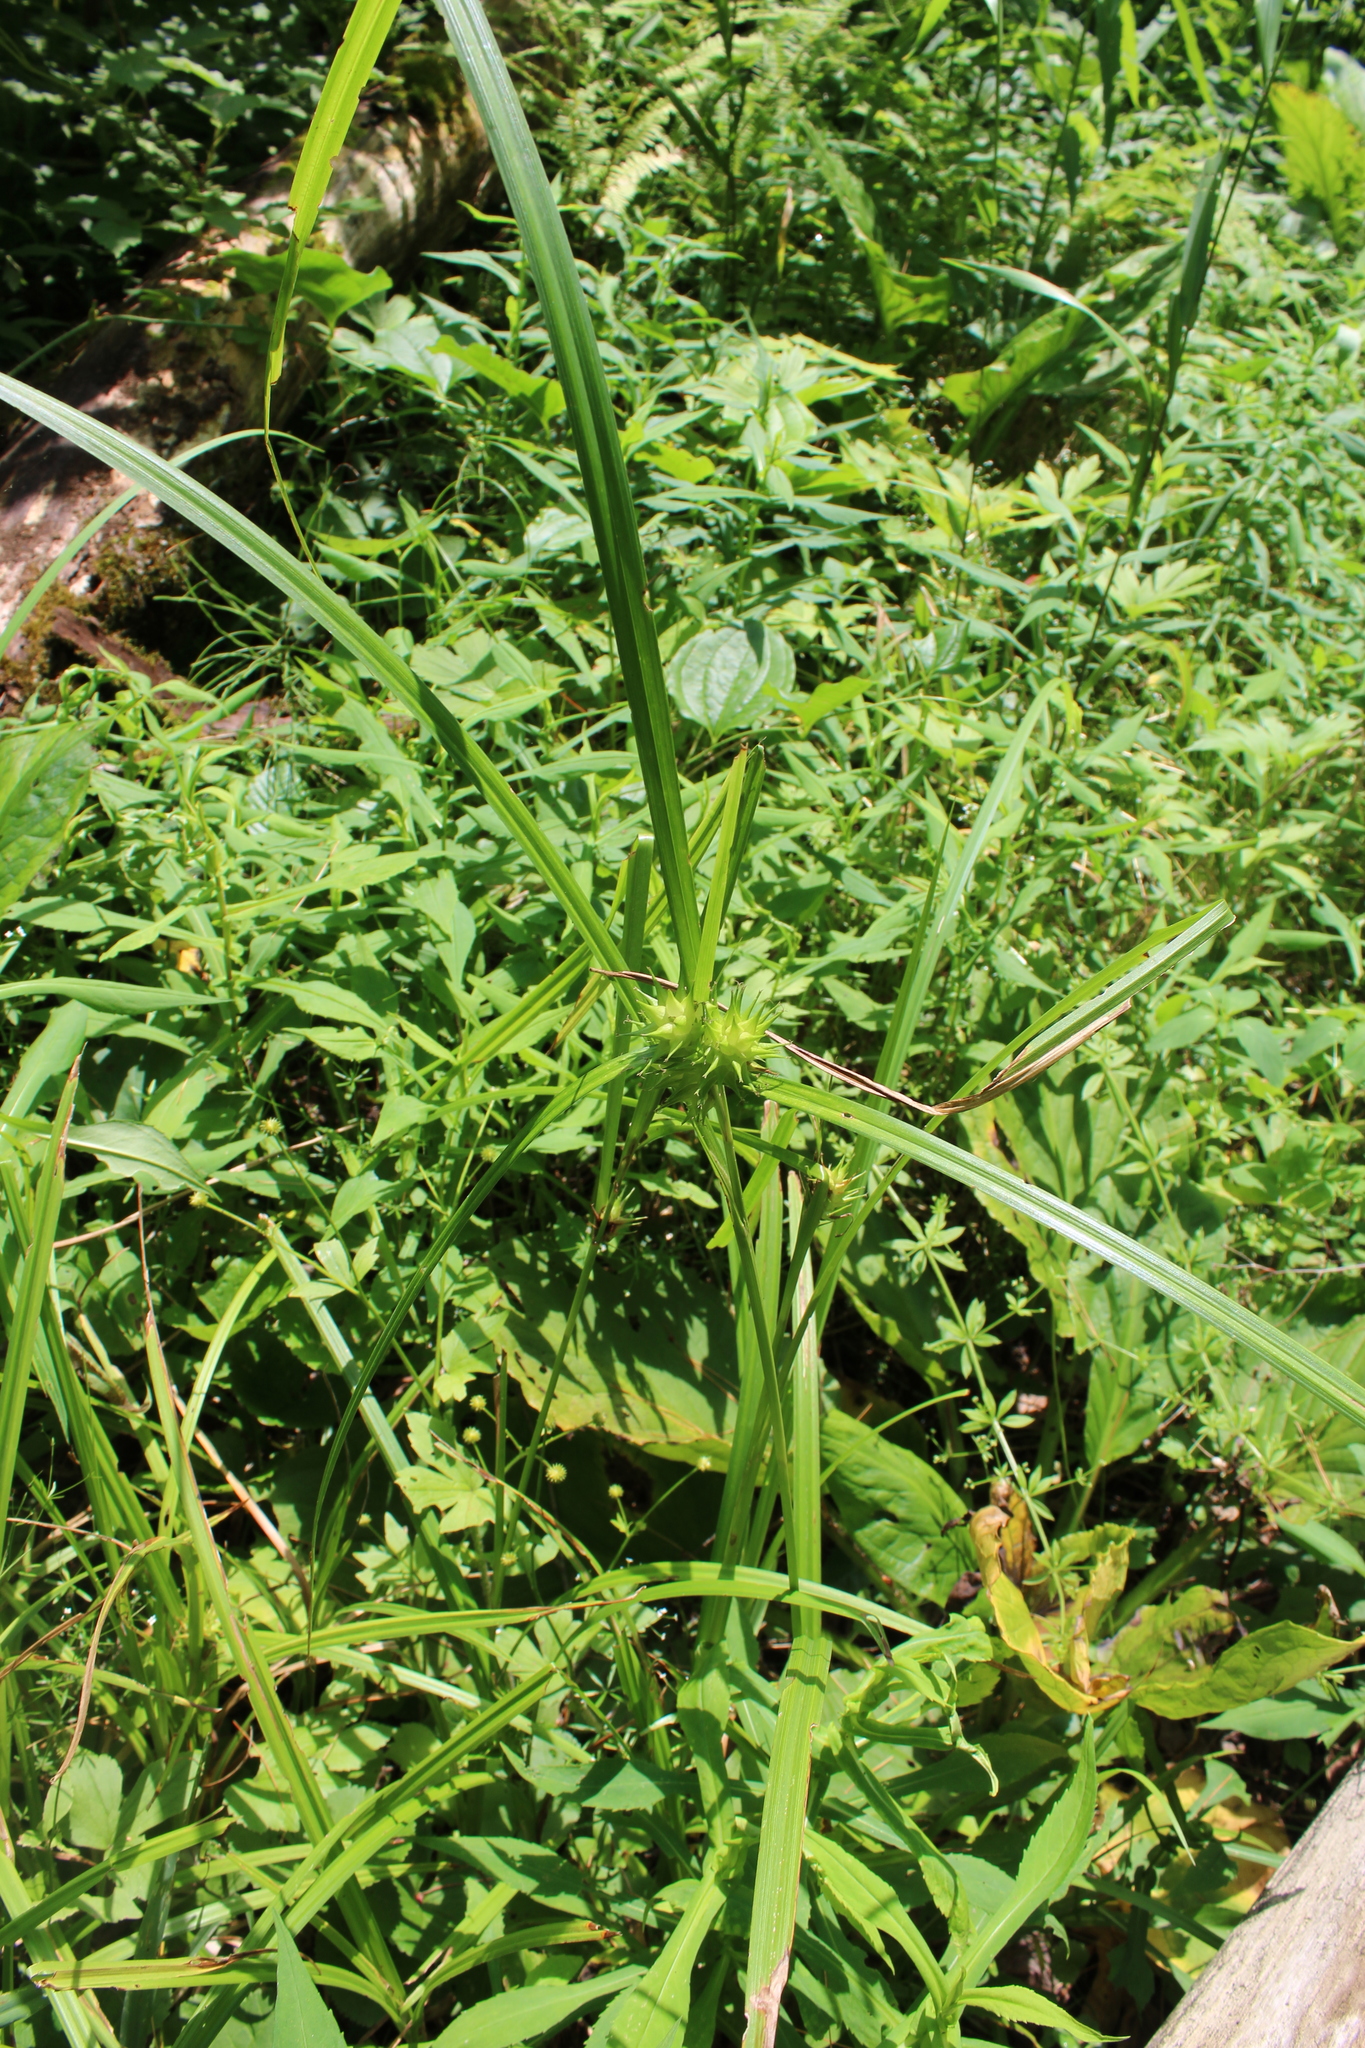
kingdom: Plantae
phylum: Tracheophyta
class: Liliopsida
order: Poales
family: Cyperaceae
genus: Carex
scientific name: Carex lupulina
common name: Hop sedge
